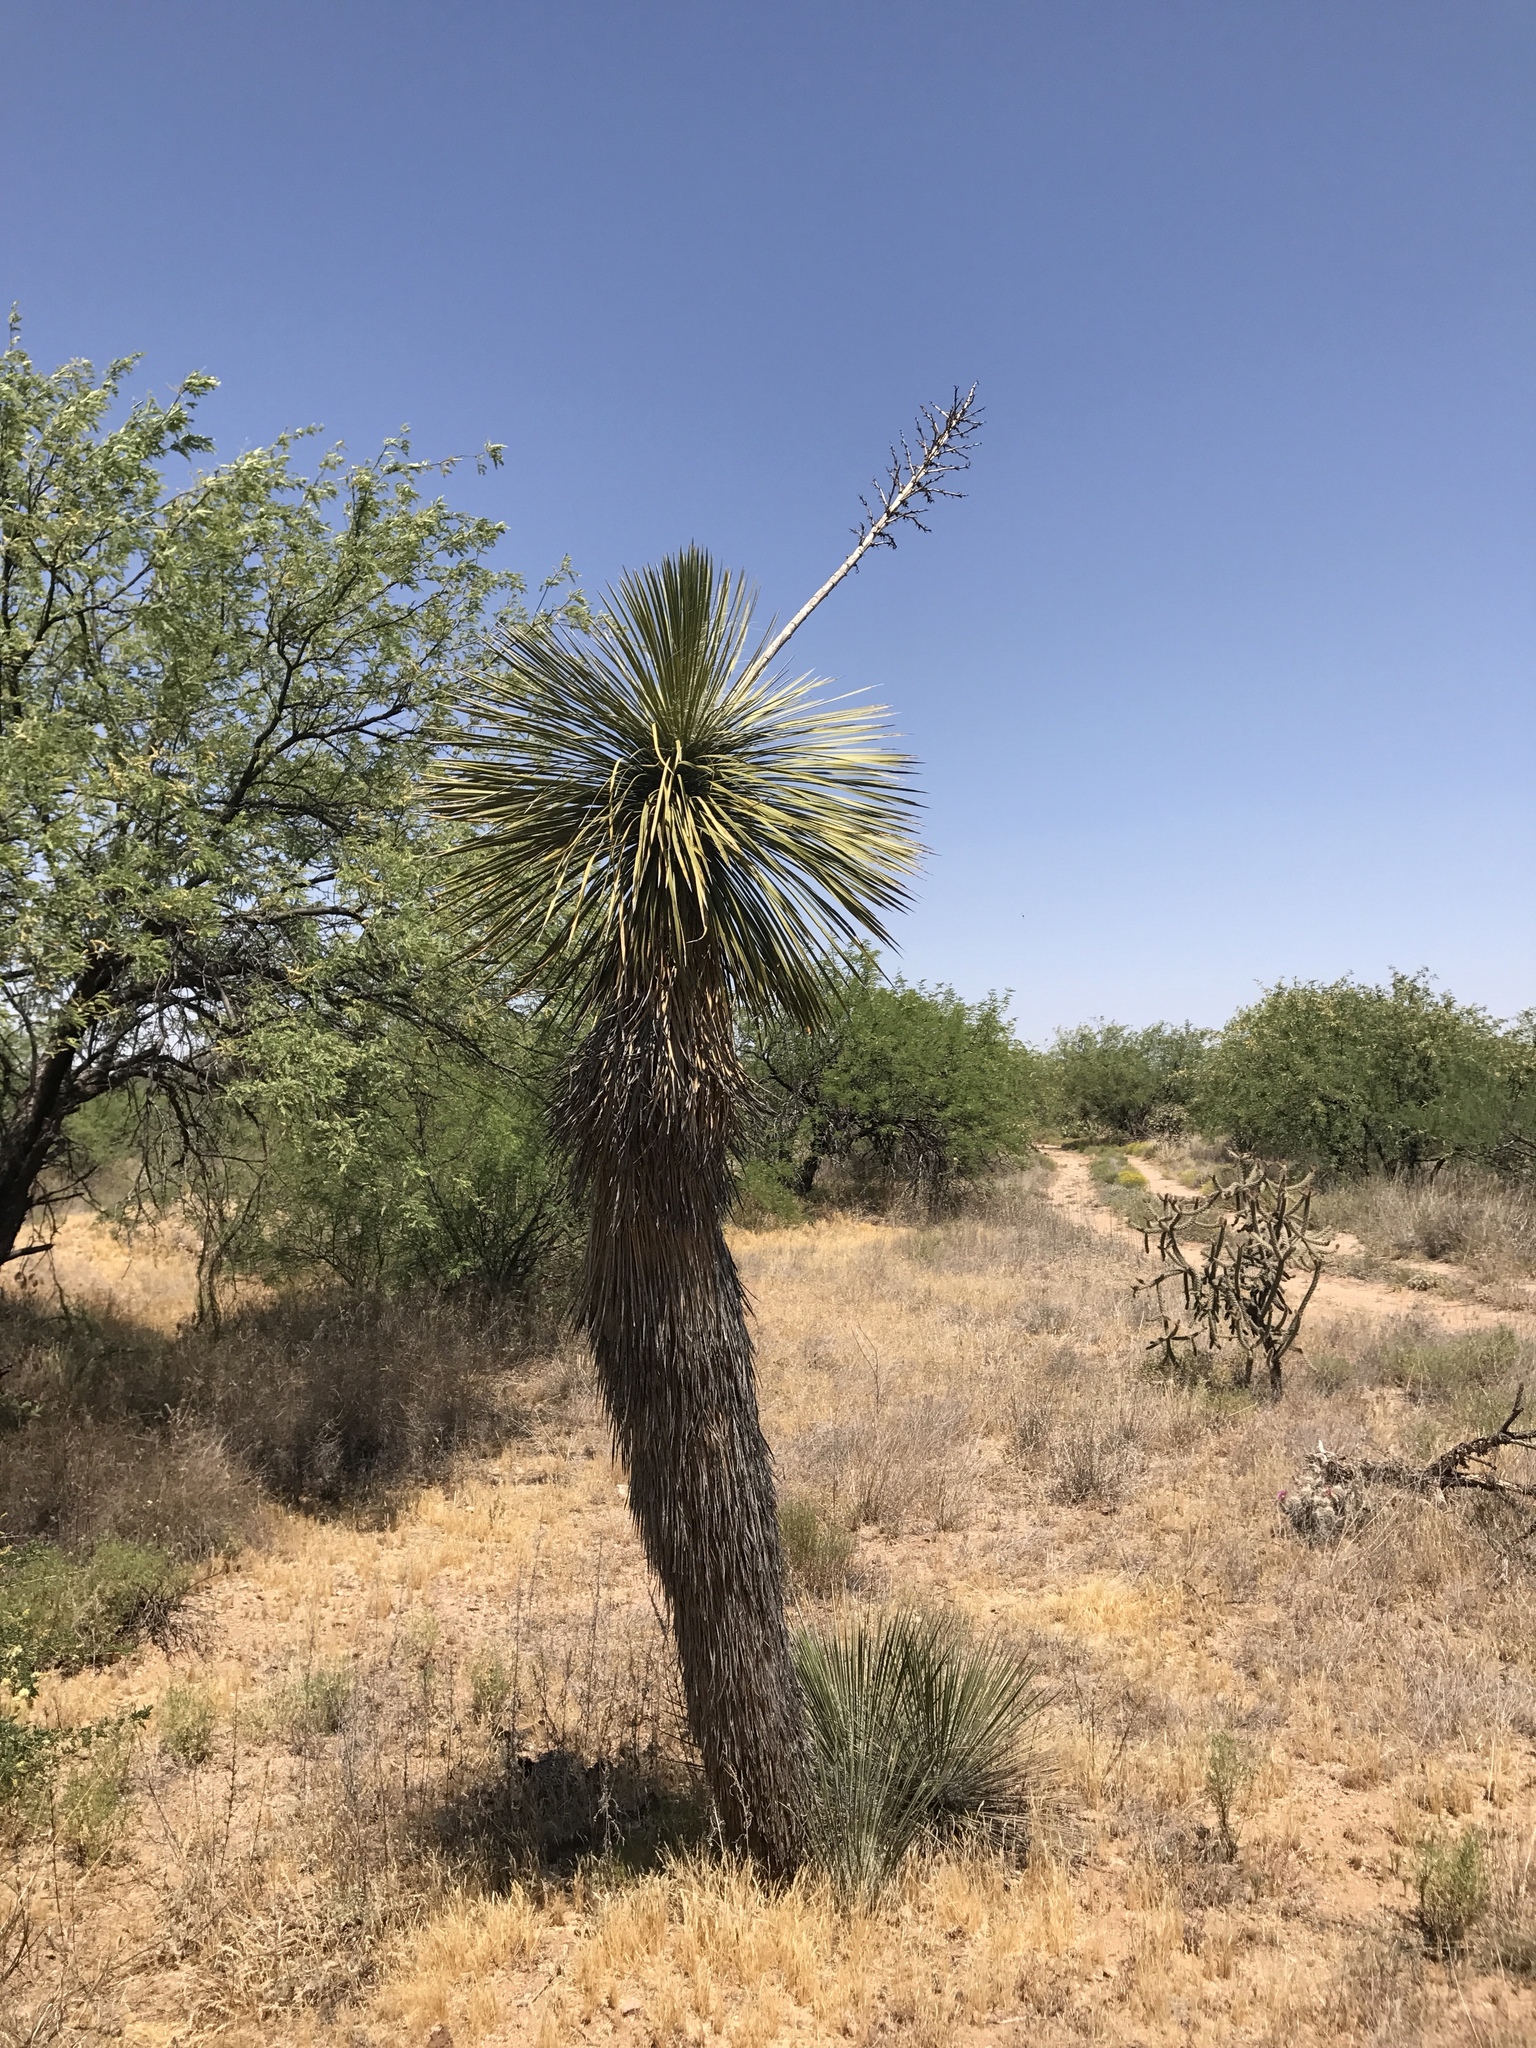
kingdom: Plantae
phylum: Tracheophyta
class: Liliopsida
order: Asparagales
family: Asparagaceae
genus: Yucca
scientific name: Yucca elata
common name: Palmella
